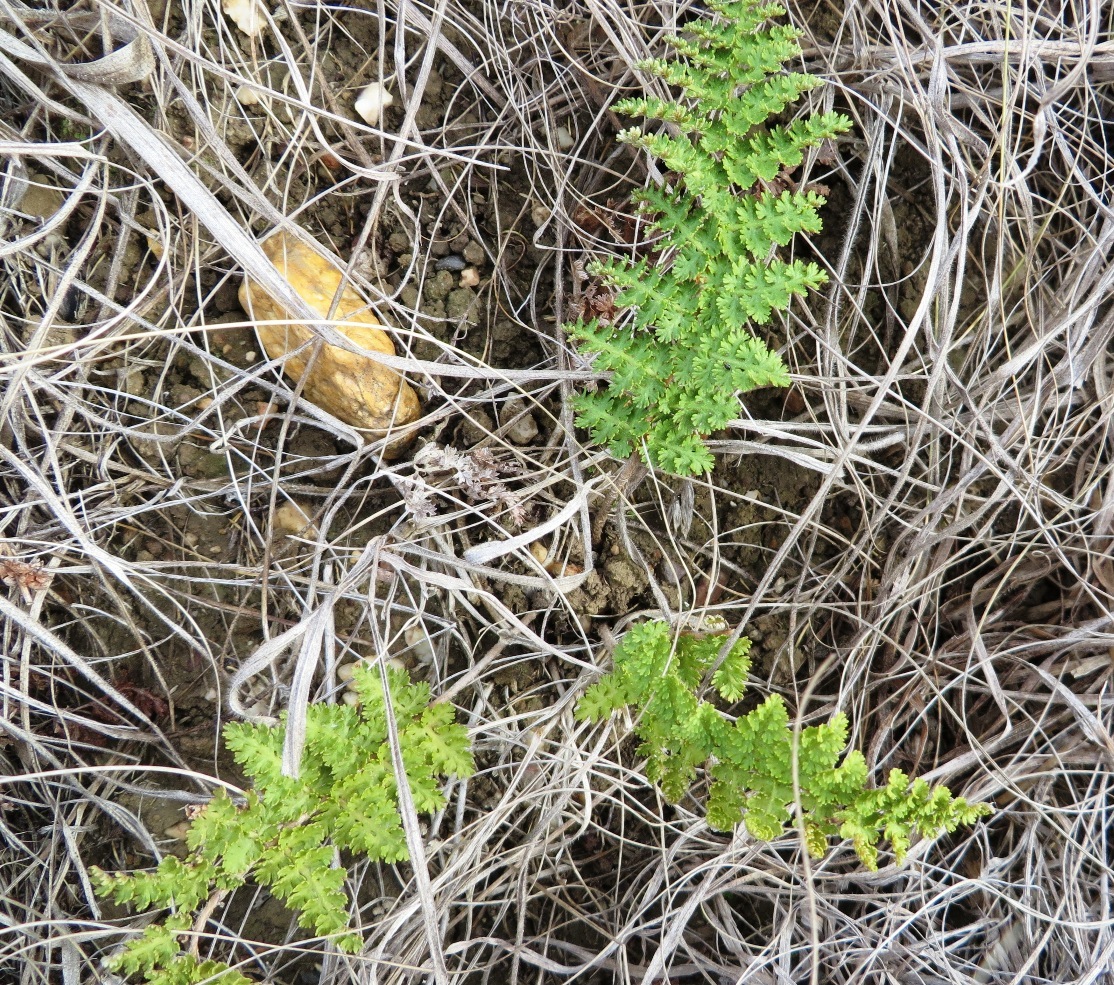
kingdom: Plantae
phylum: Tracheophyta
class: Polypodiopsida
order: Schizaeales
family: Anemiaceae
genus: Anemia
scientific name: Anemia caffrorum
